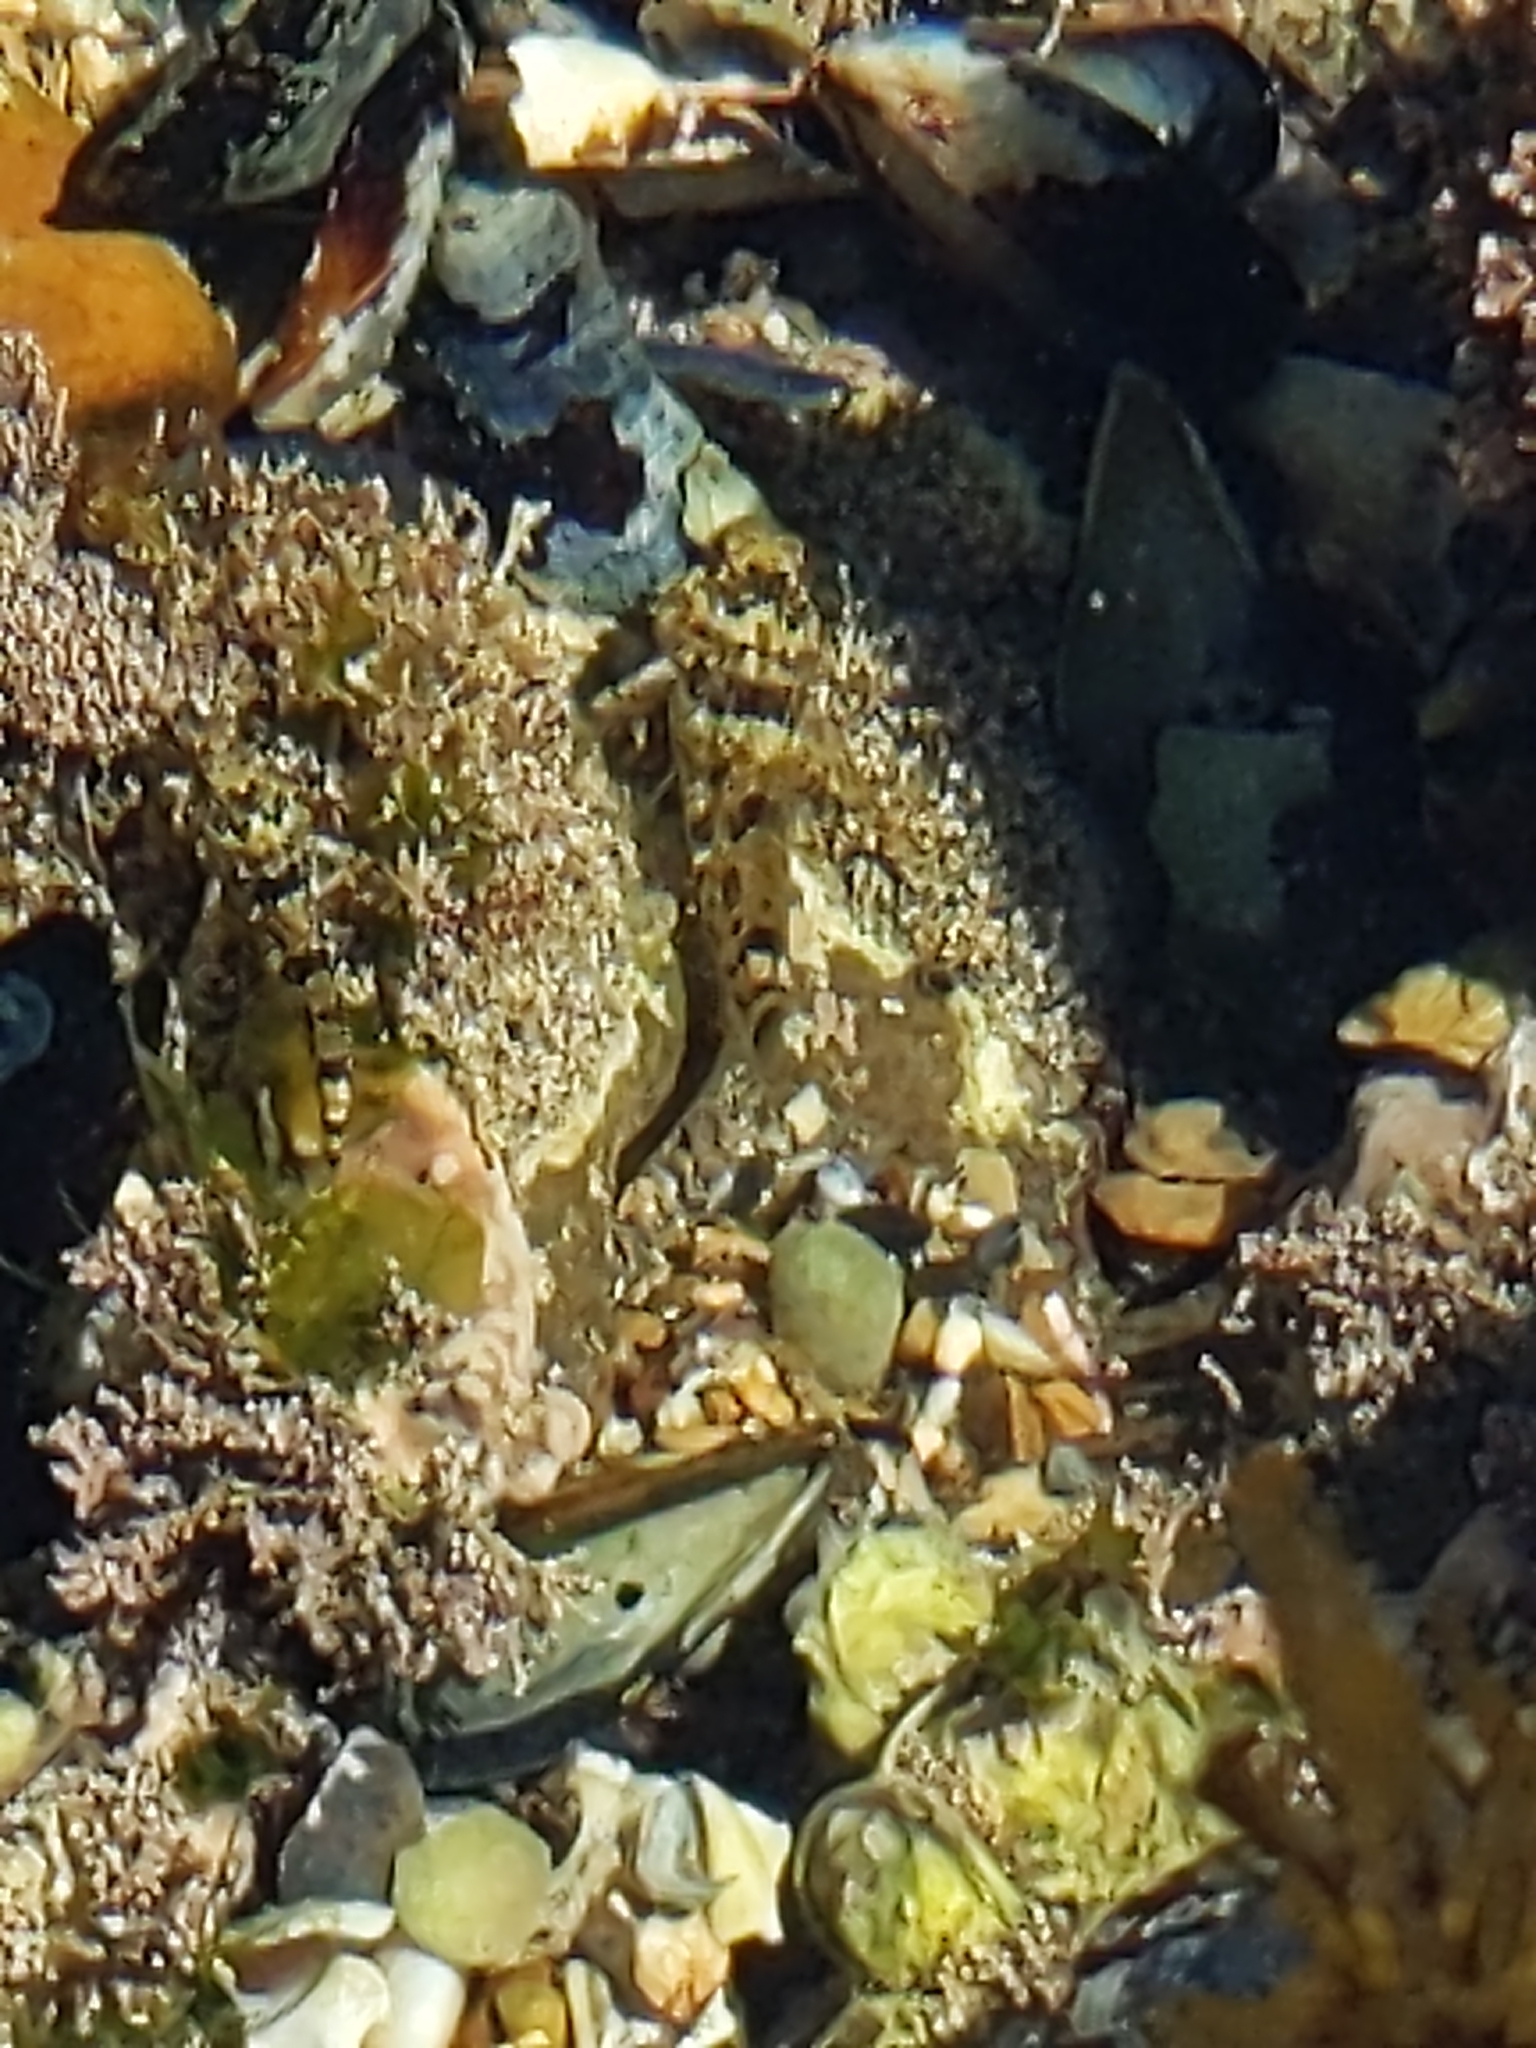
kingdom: Animalia
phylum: Chordata
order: Scorpaeniformes
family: Cottidae
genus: Clinocottus
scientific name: Clinocottus analis
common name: Woolly sculpin
